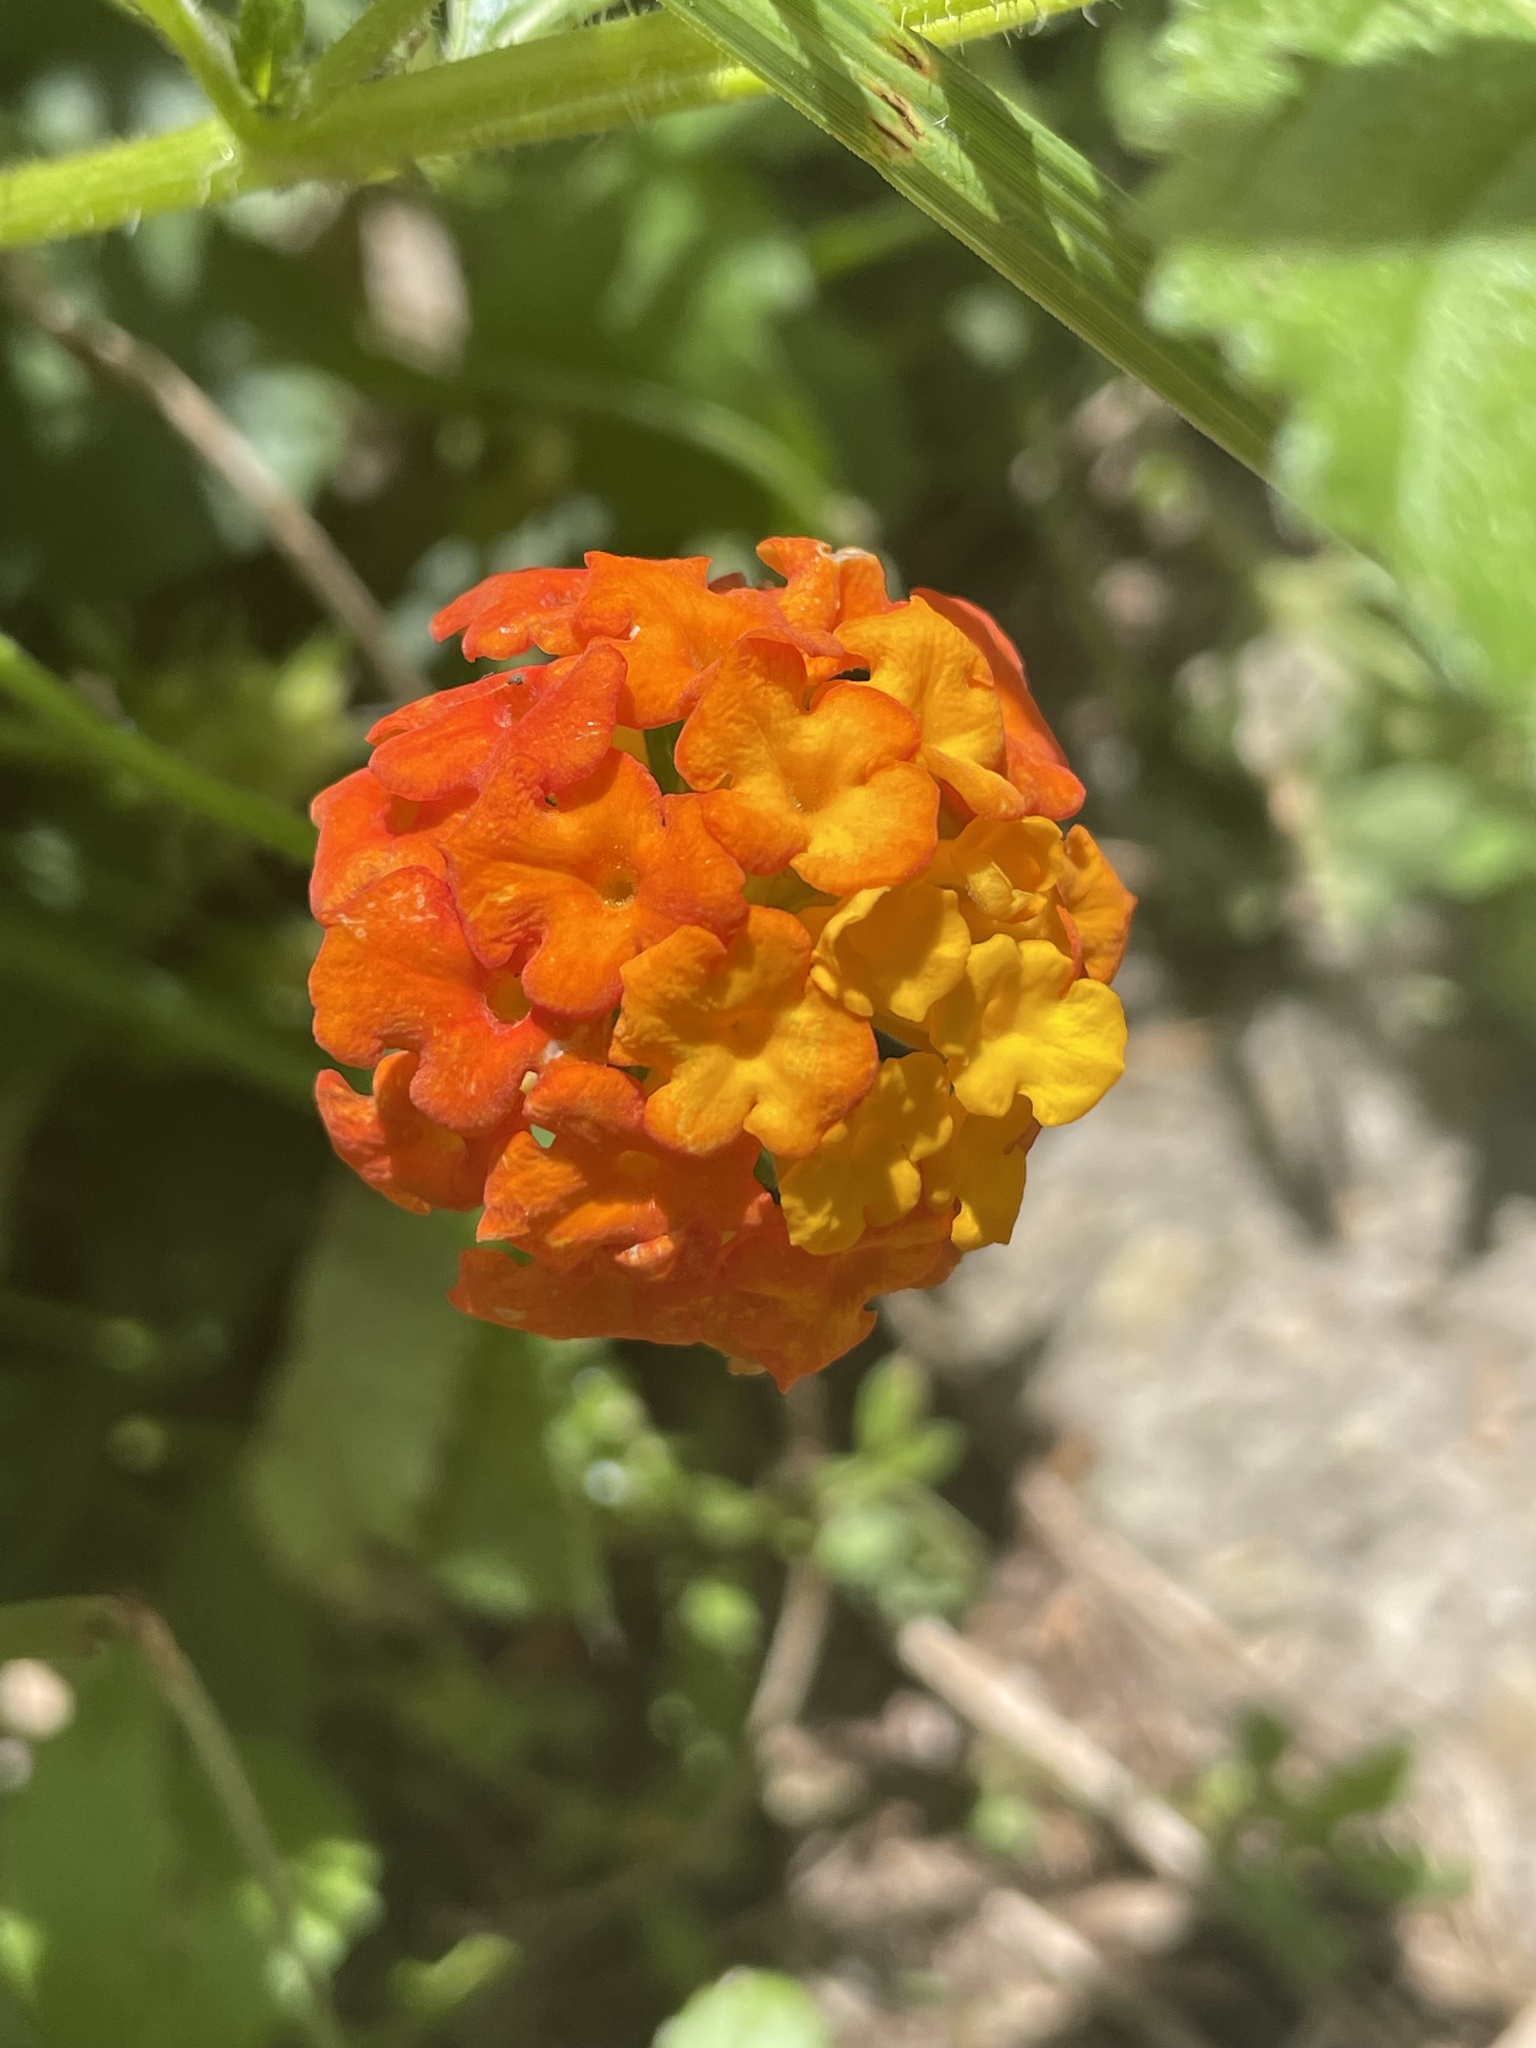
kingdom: Plantae
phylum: Tracheophyta
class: Magnoliopsida
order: Lamiales
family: Verbenaceae
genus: Lantana
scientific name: Lantana urticoides
